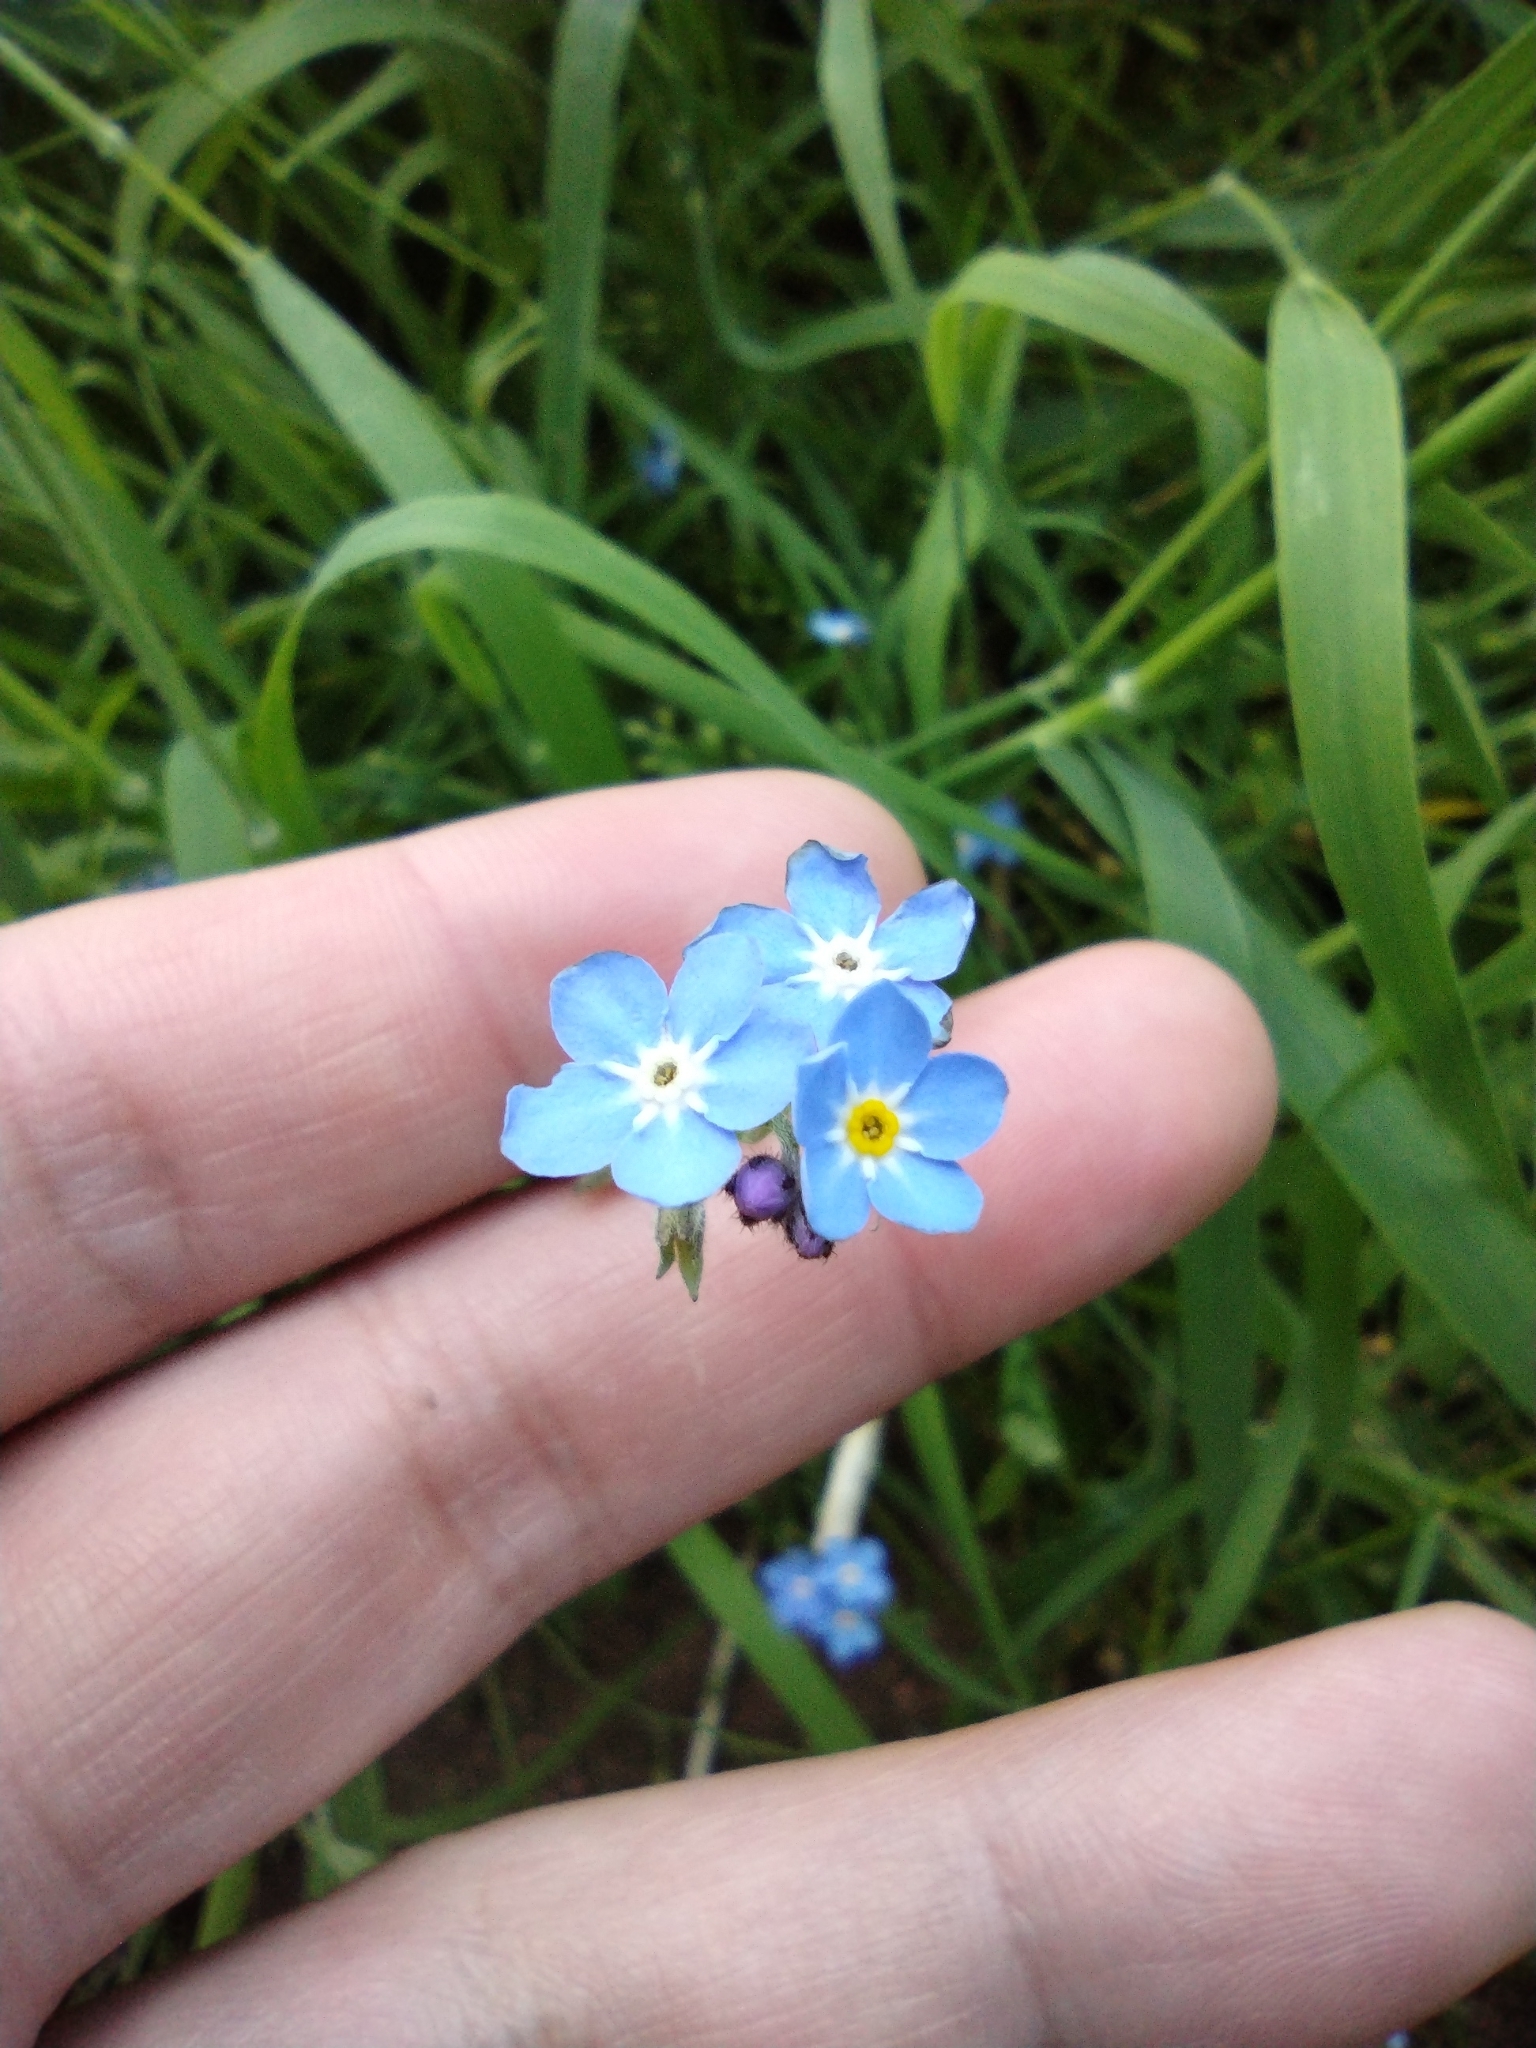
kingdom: Plantae
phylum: Tracheophyta
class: Magnoliopsida
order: Boraginales
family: Boraginaceae
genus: Myosotis
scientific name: Myosotis scorpioides
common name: Water forget-me-not
